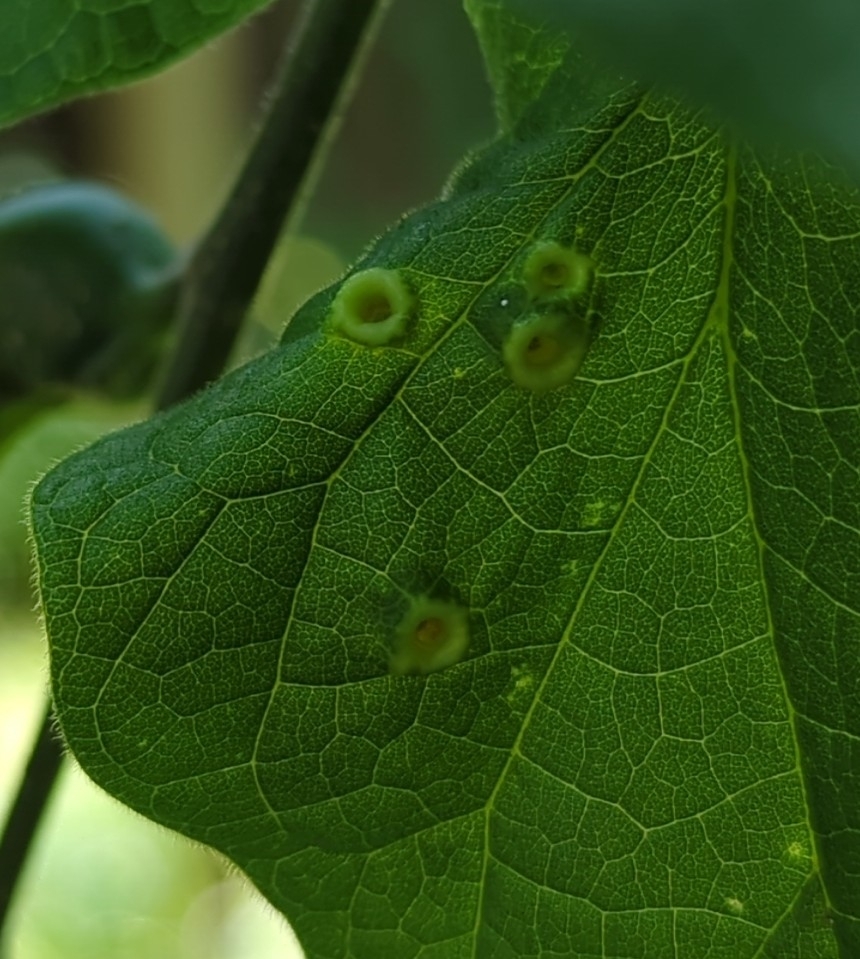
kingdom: Animalia
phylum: Arthropoda
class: Insecta
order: Hemiptera
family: Aphalaridae
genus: Pachypsylla
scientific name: Pachypsylla celtidismamma
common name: Hackberry nipplegall psyllid
